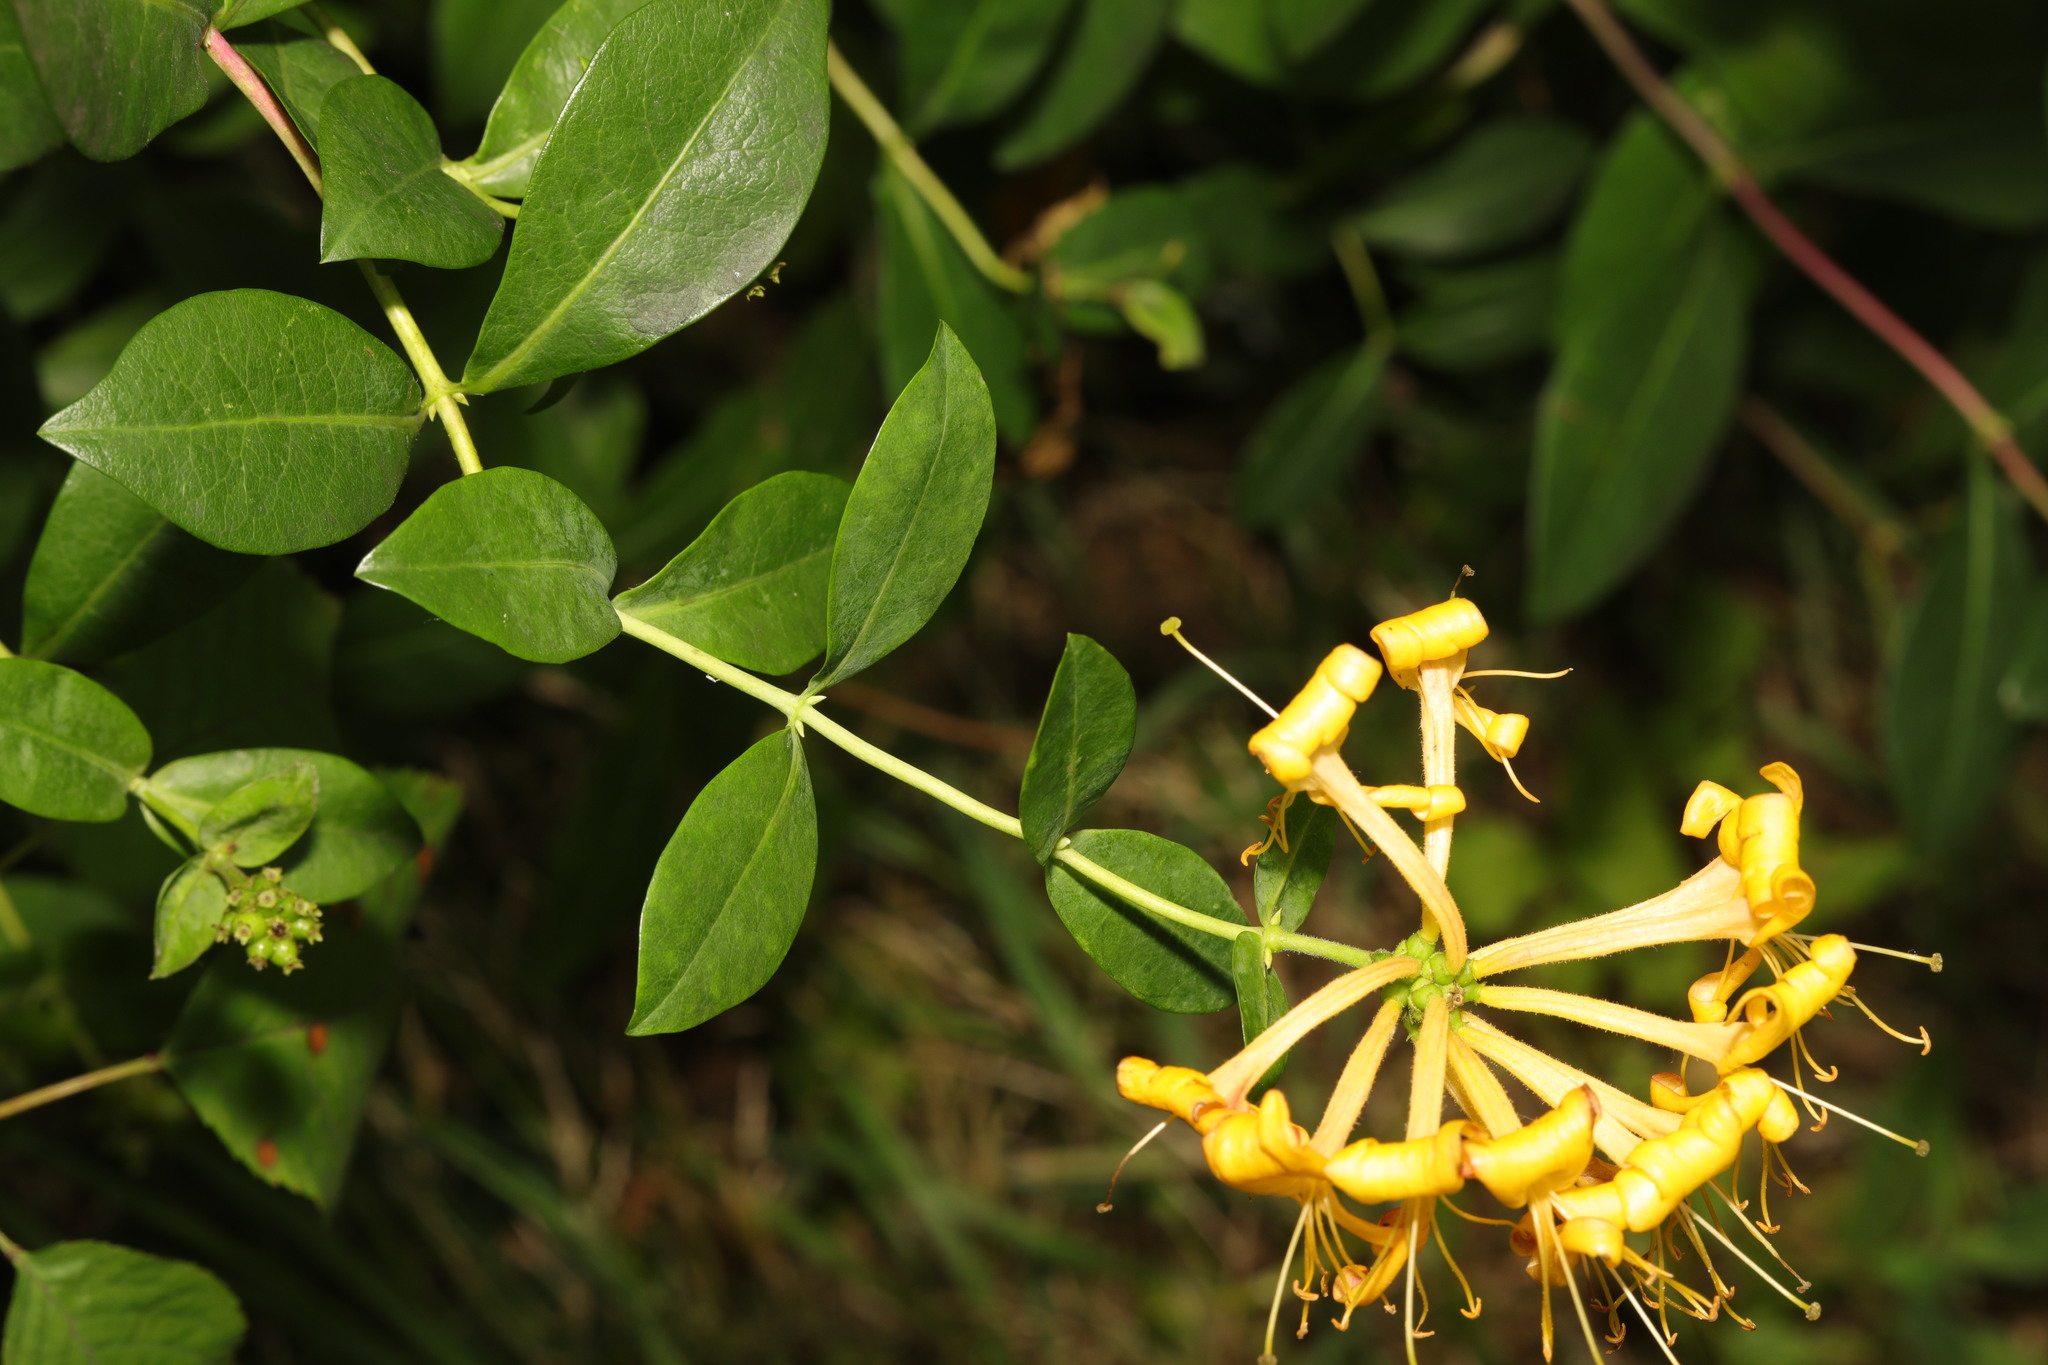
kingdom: Plantae
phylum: Tracheophyta
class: Magnoliopsida
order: Dipsacales
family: Caprifoliaceae
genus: Lonicera
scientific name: Lonicera periclymenum
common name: European honeysuckle
